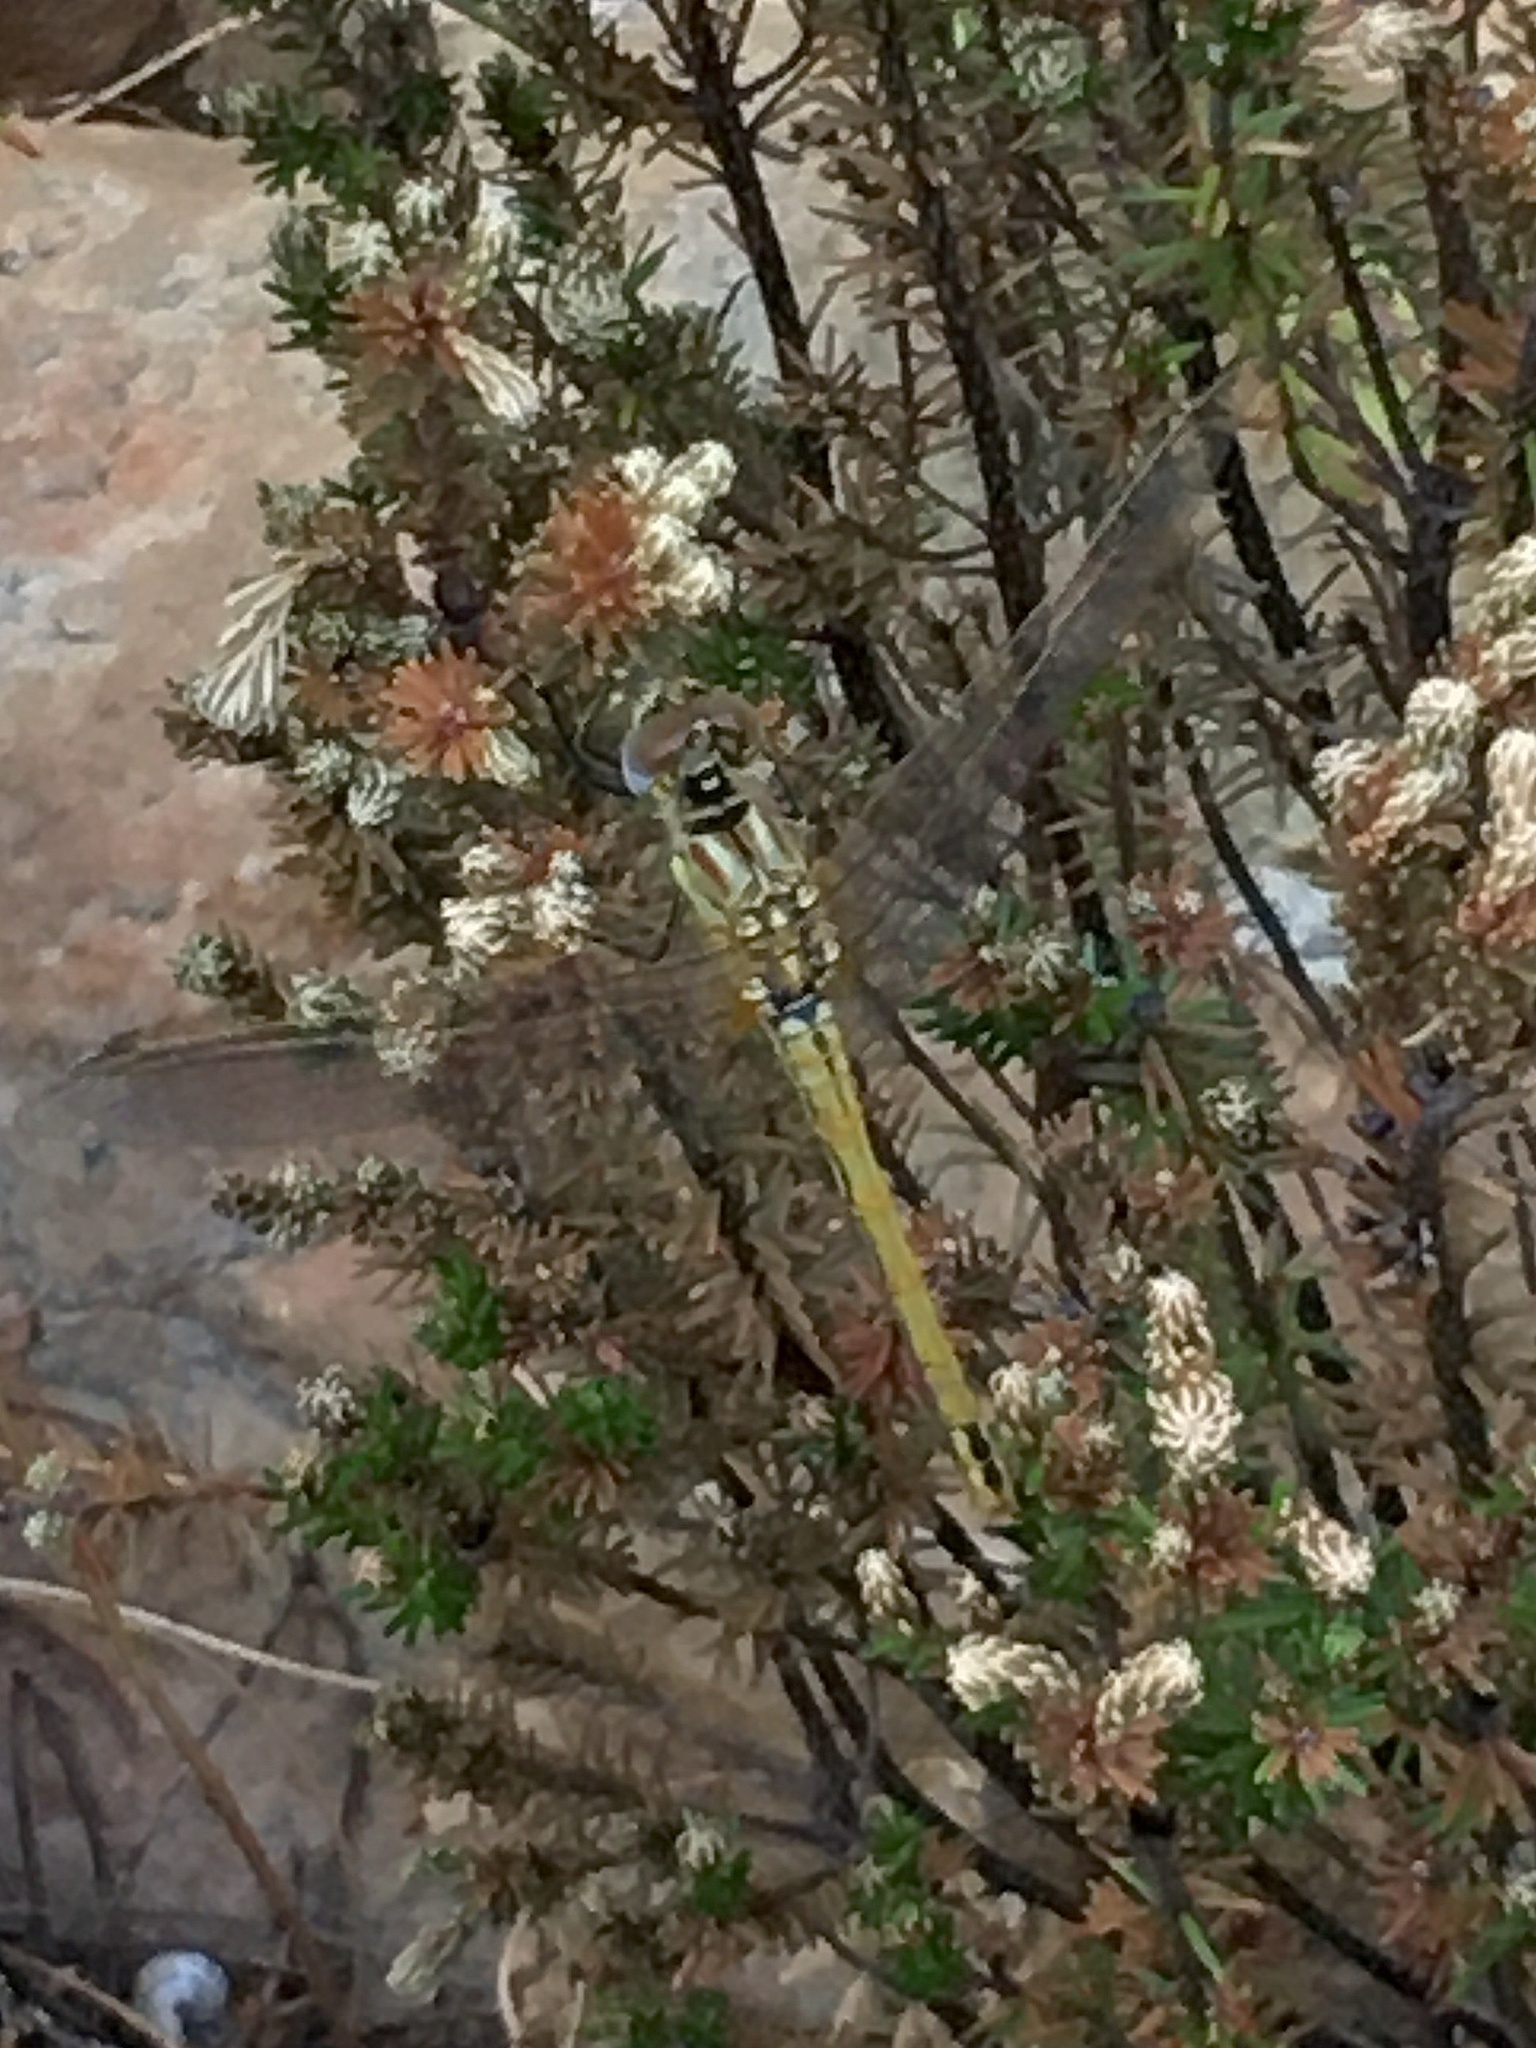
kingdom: Animalia
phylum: Arthropoda
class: Insecta
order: Odonata
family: Libellulidae
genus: Sympetrum
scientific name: Sympetrum fonscolombii
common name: Red-veined darter
